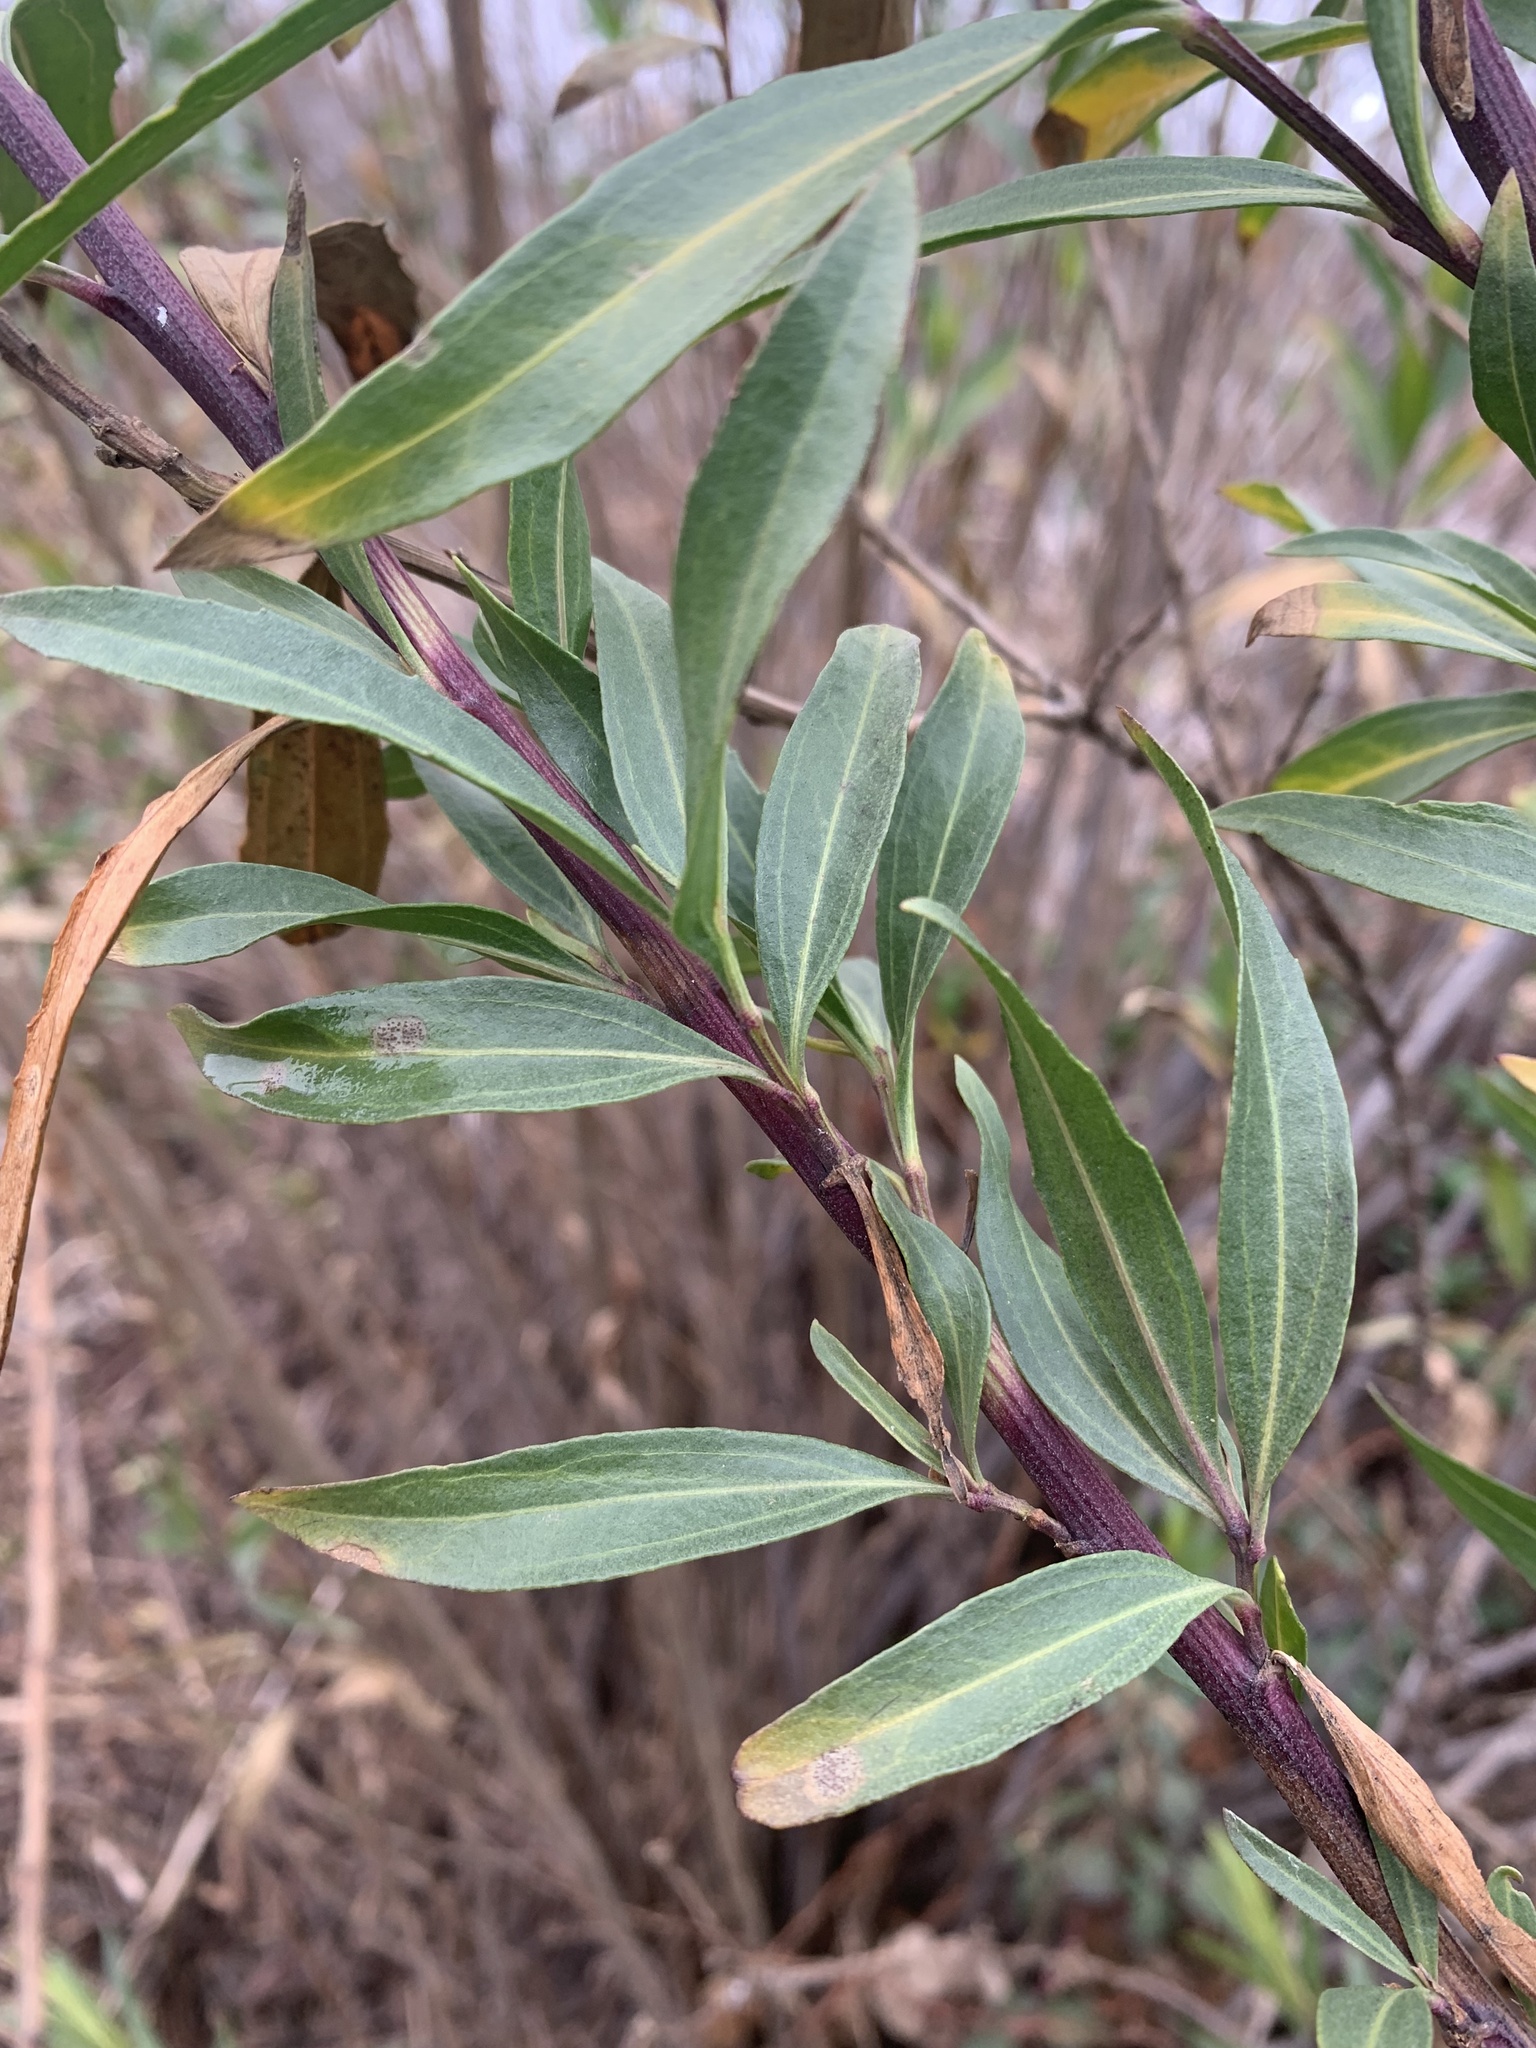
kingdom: Plantae
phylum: Tracheophyta
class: Magnoliopsida
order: Asterales
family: Asteraceae
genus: Baccharis
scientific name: Baccharis salicifolia
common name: Sticky baccharis
